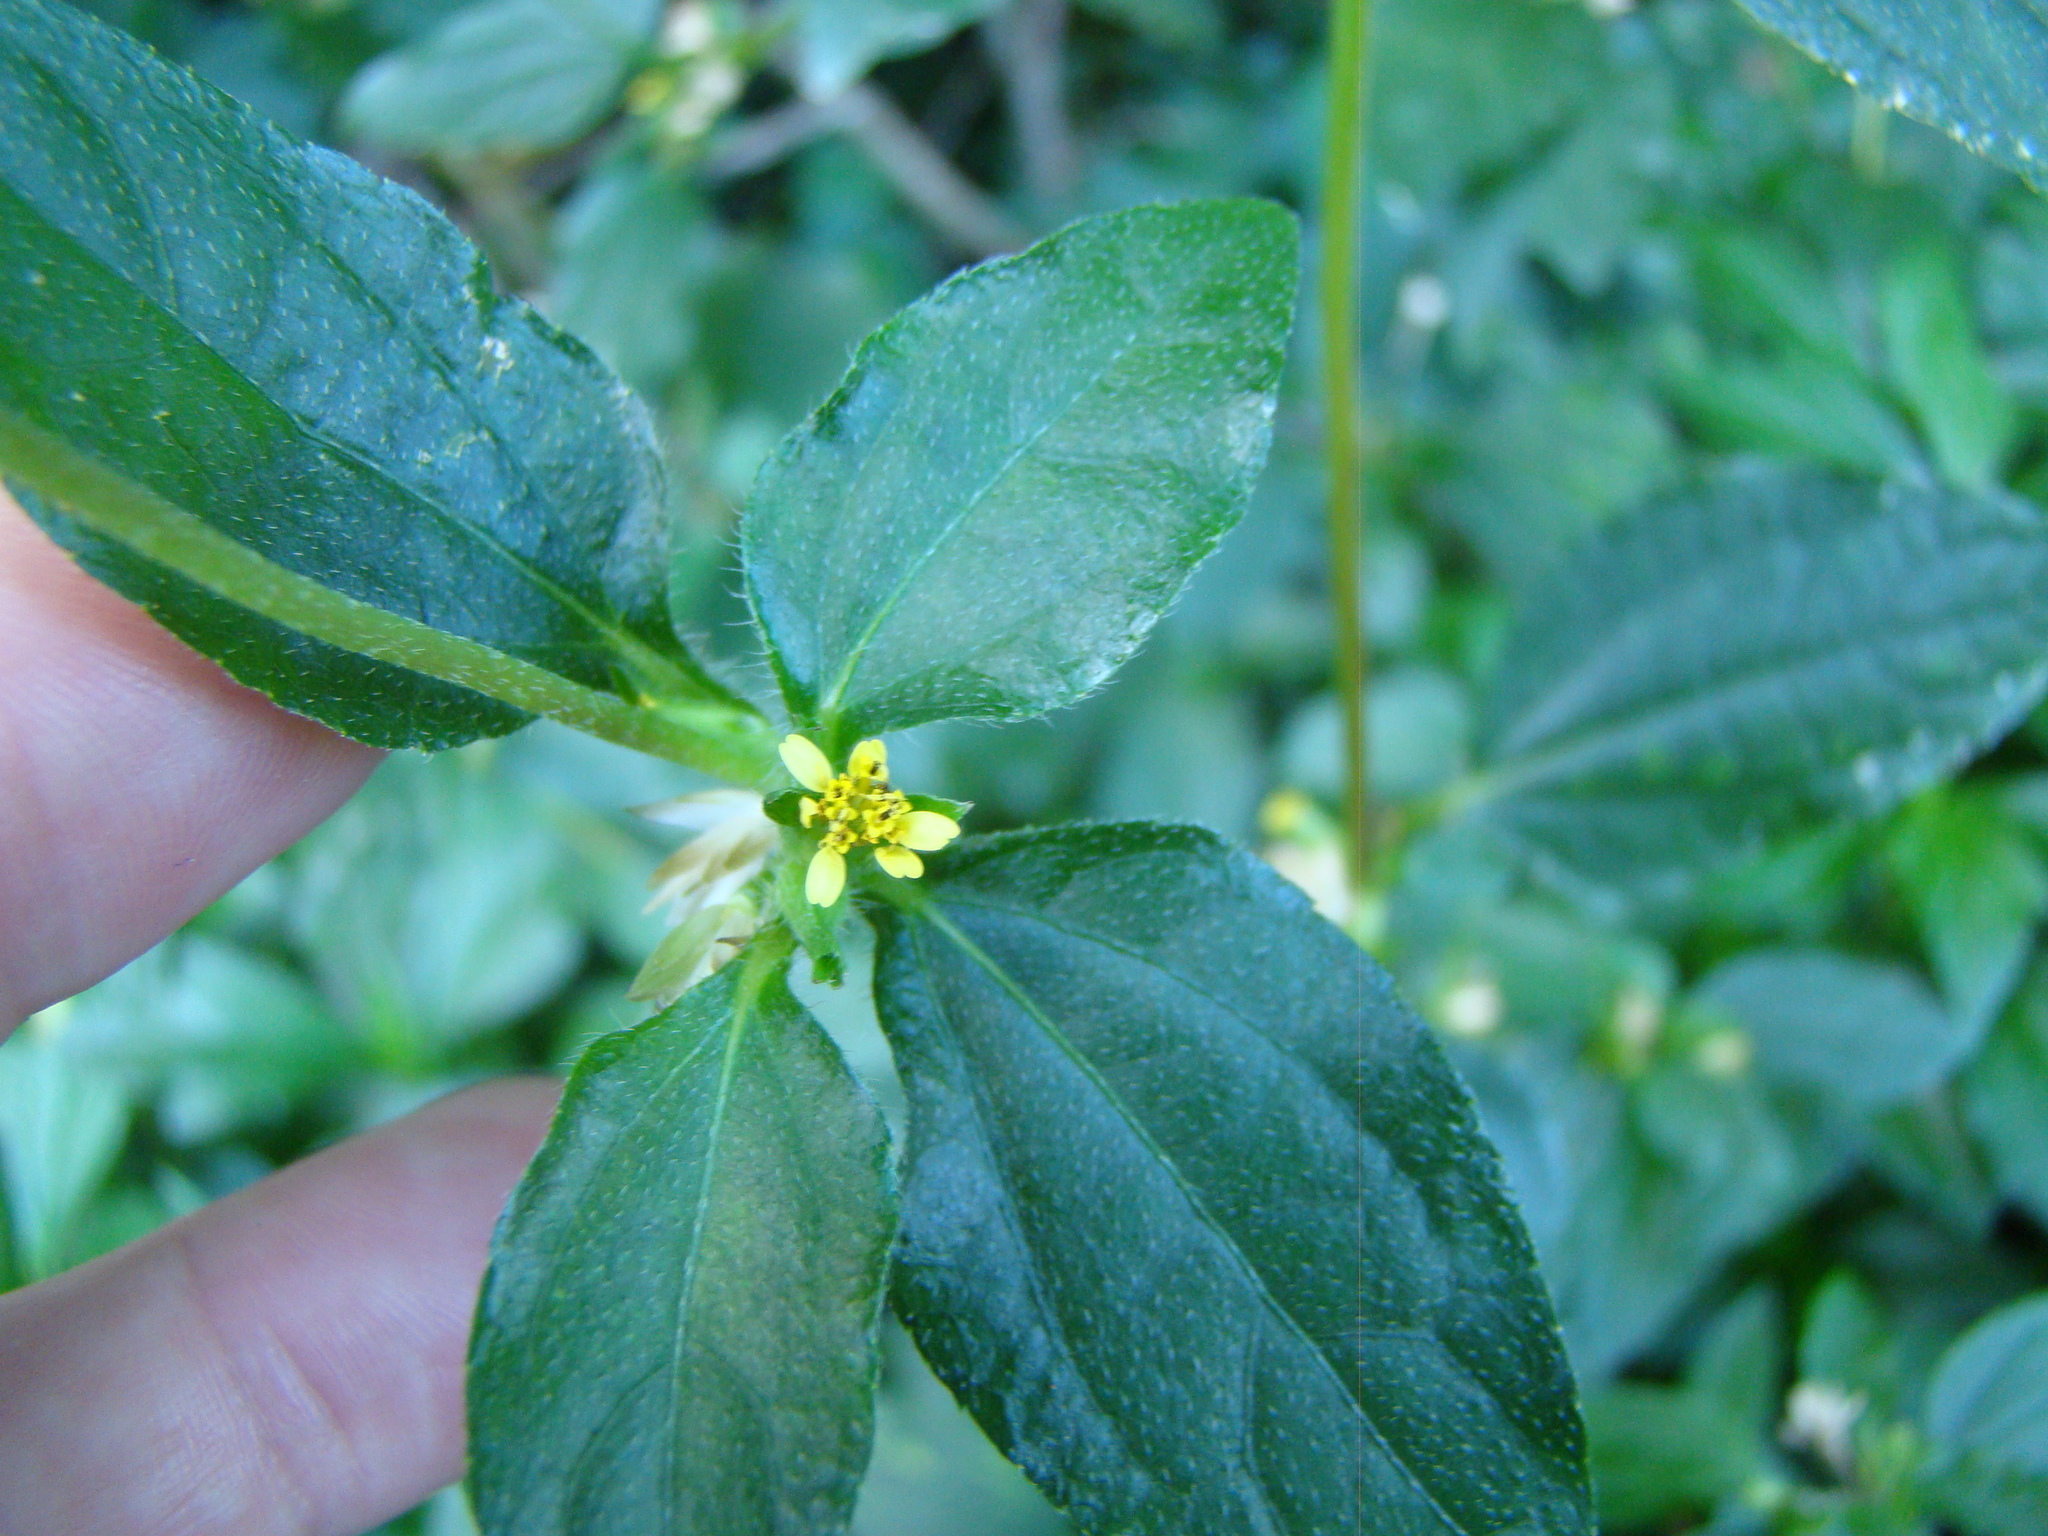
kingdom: Plantae
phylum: Tracheophyta
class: Magnoliopsida
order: Asterales
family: Asteraceae
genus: Synedrella
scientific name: Synedrella nodiflora
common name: Nodeweed
